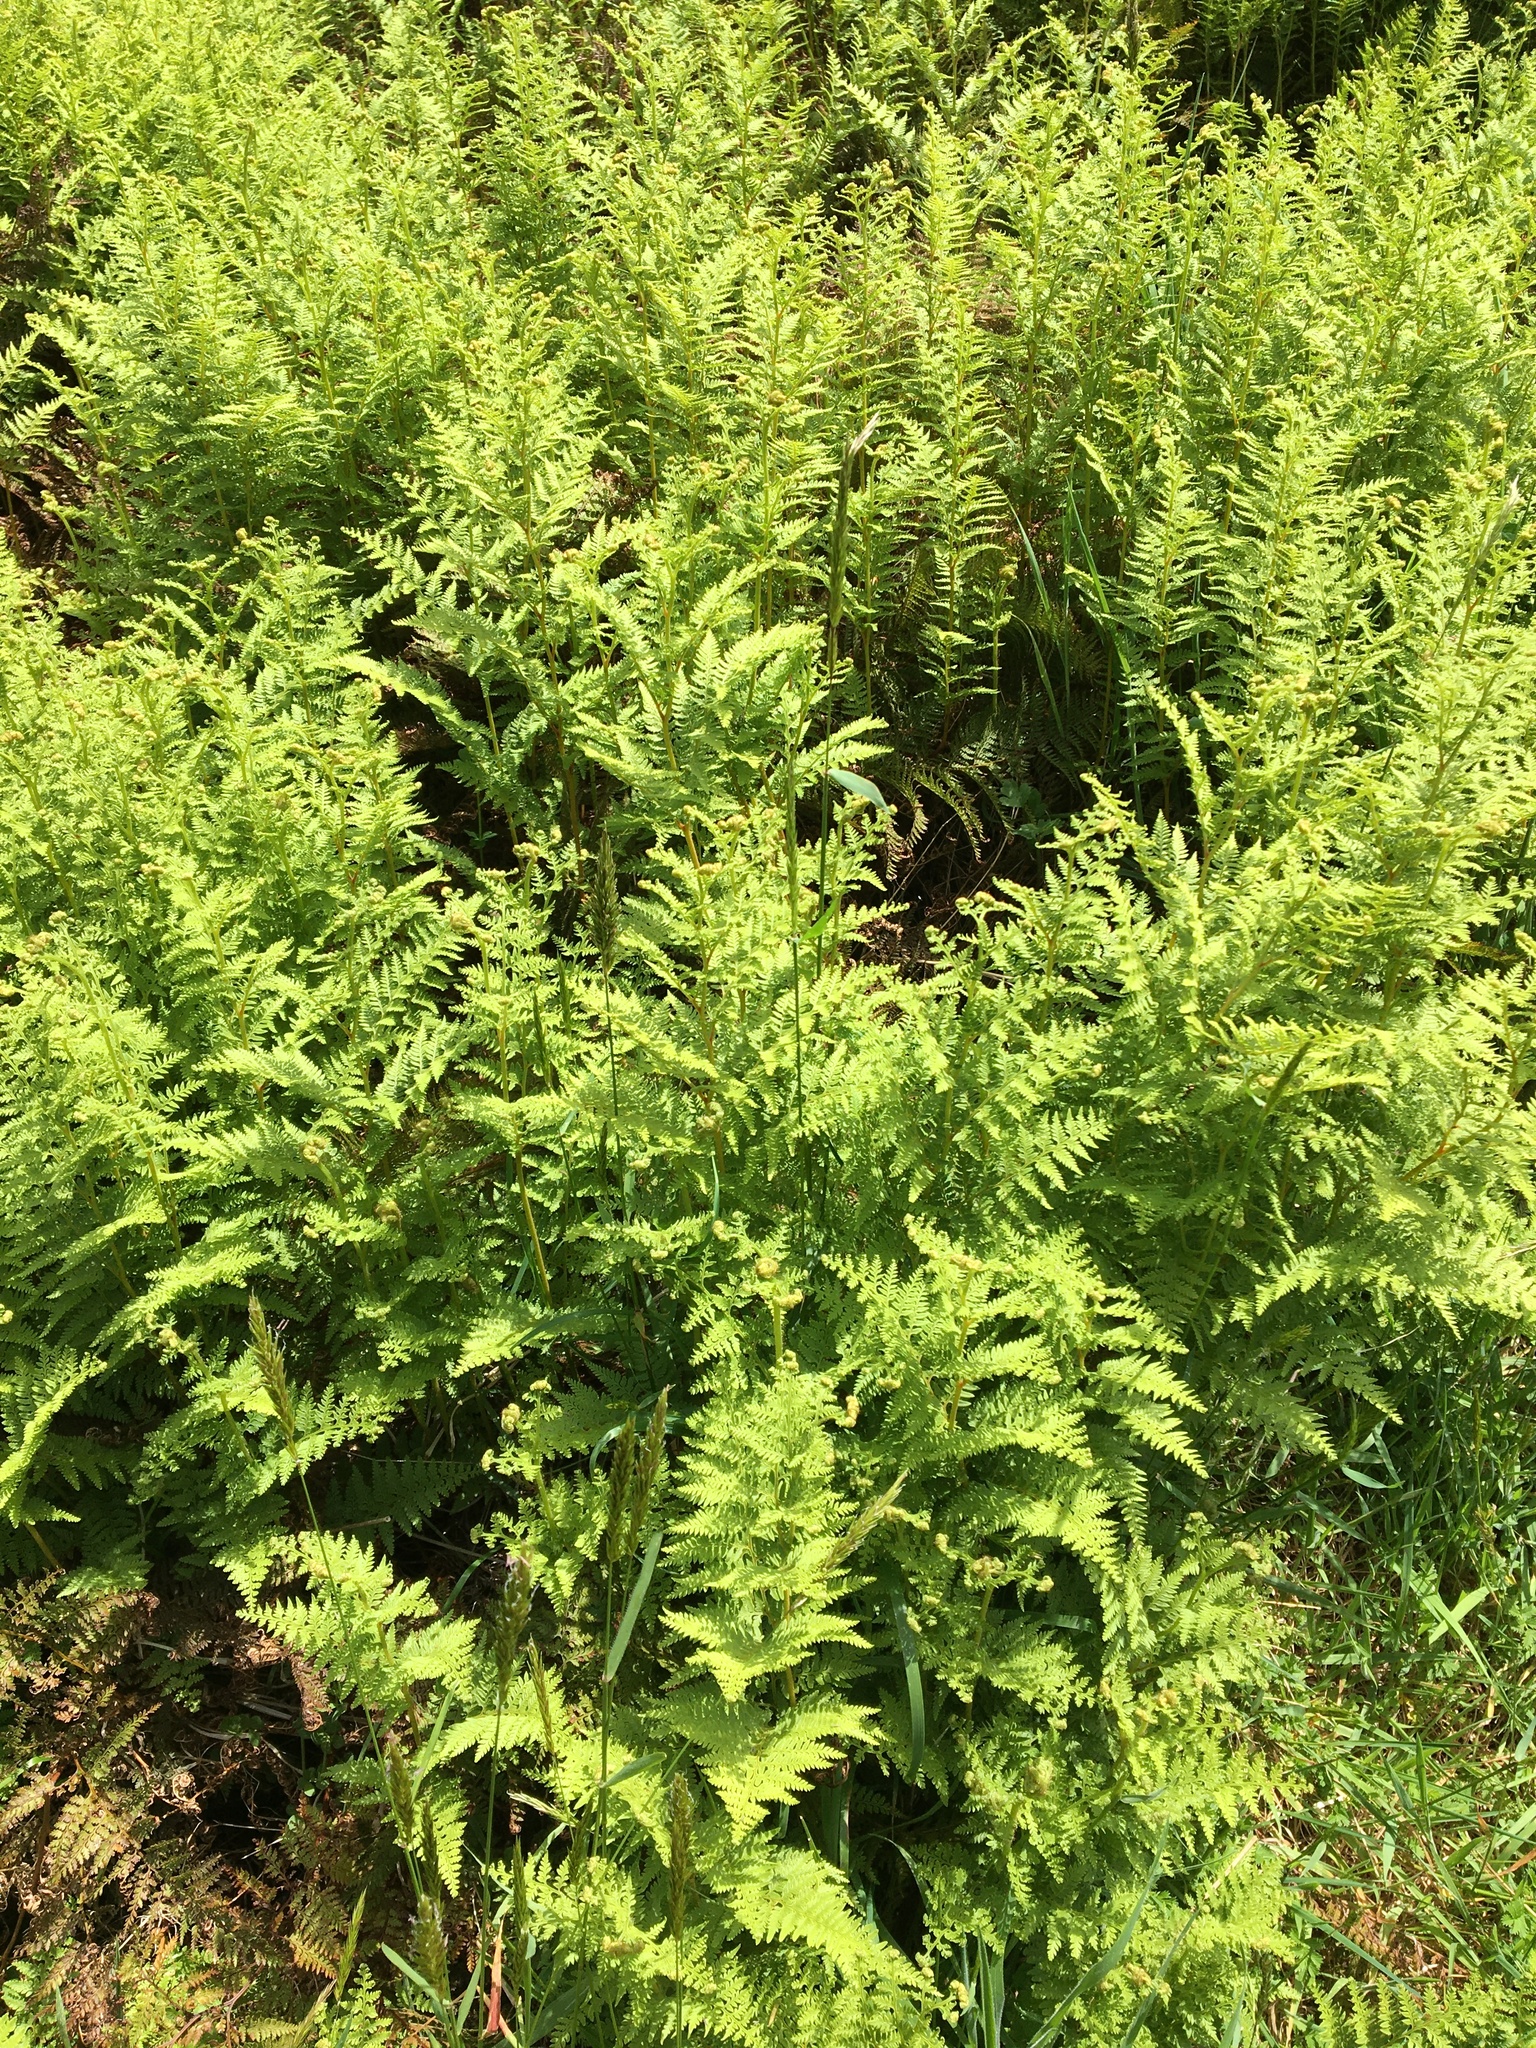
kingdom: Plantae
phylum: Tracheophyta
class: Polypodiopsida
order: Polypodiales
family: Dennstaedtiaceae
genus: Paesia
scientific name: Paesia scaberula
